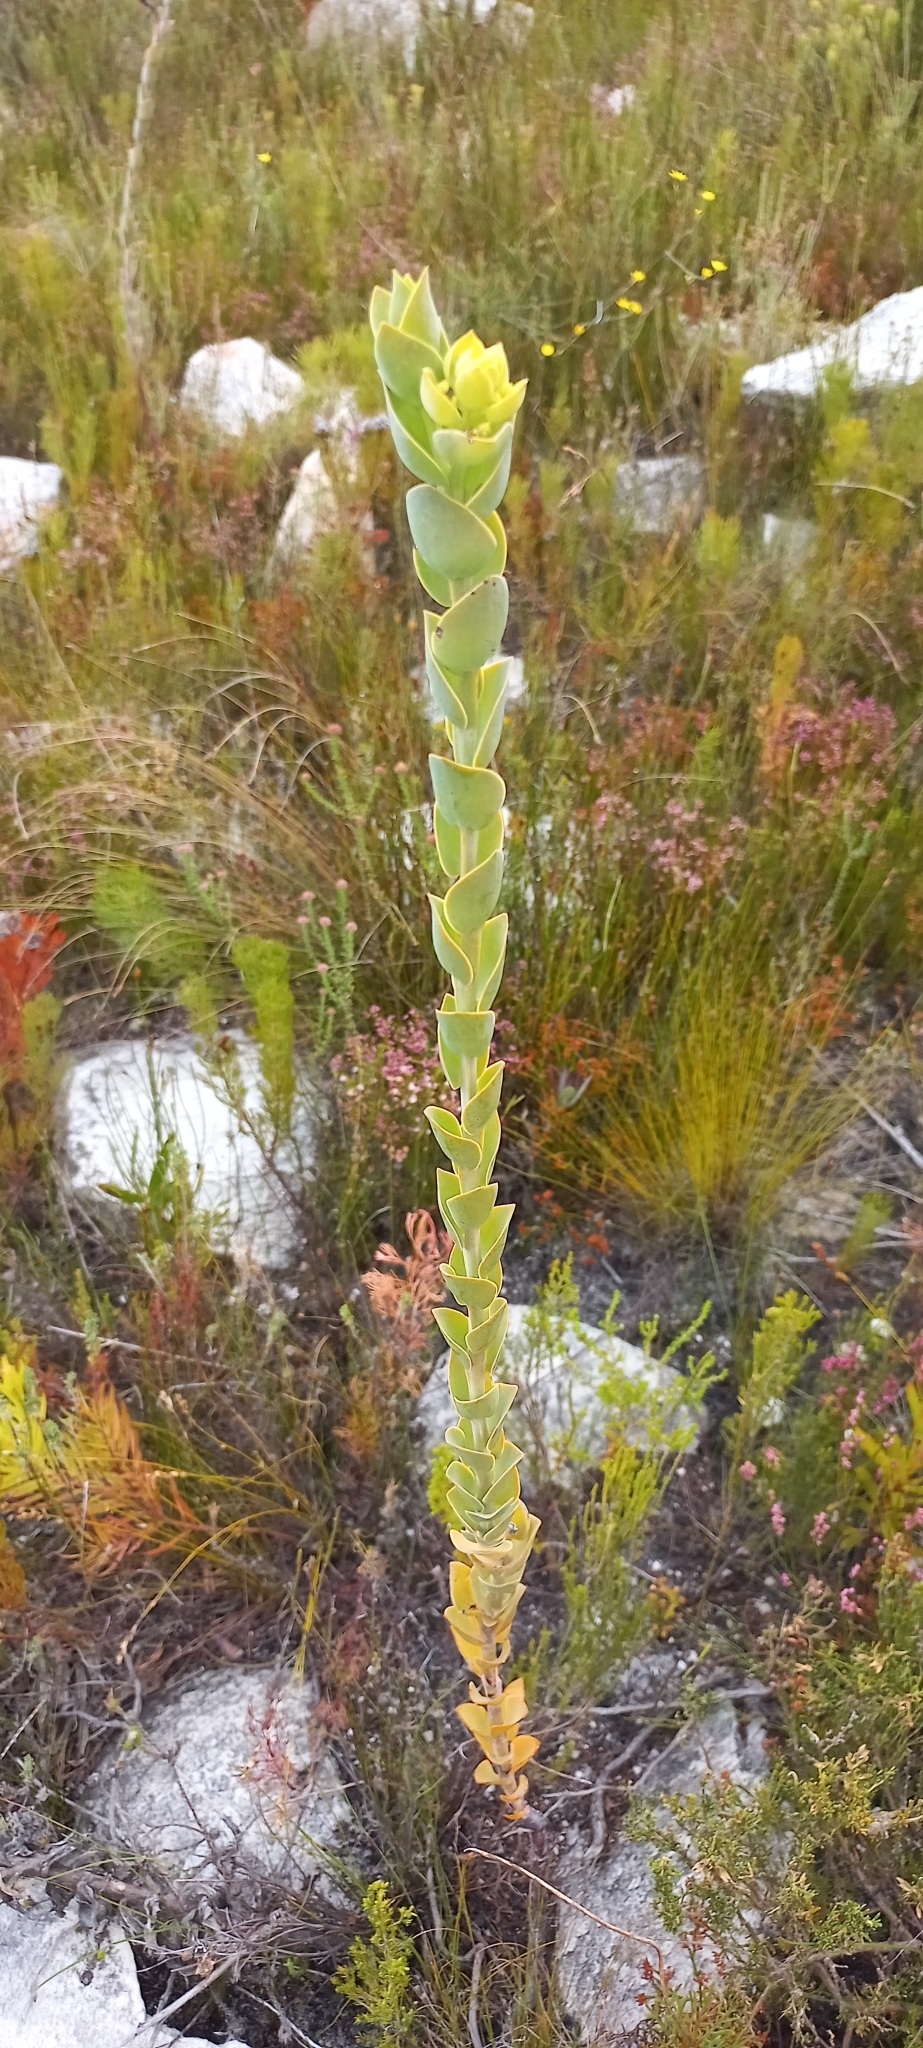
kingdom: Plantae
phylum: Tracheophyta
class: Magnoliopsida
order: Santalales
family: Thesiaceae
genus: Thesium
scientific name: Thesium euphorbioides
